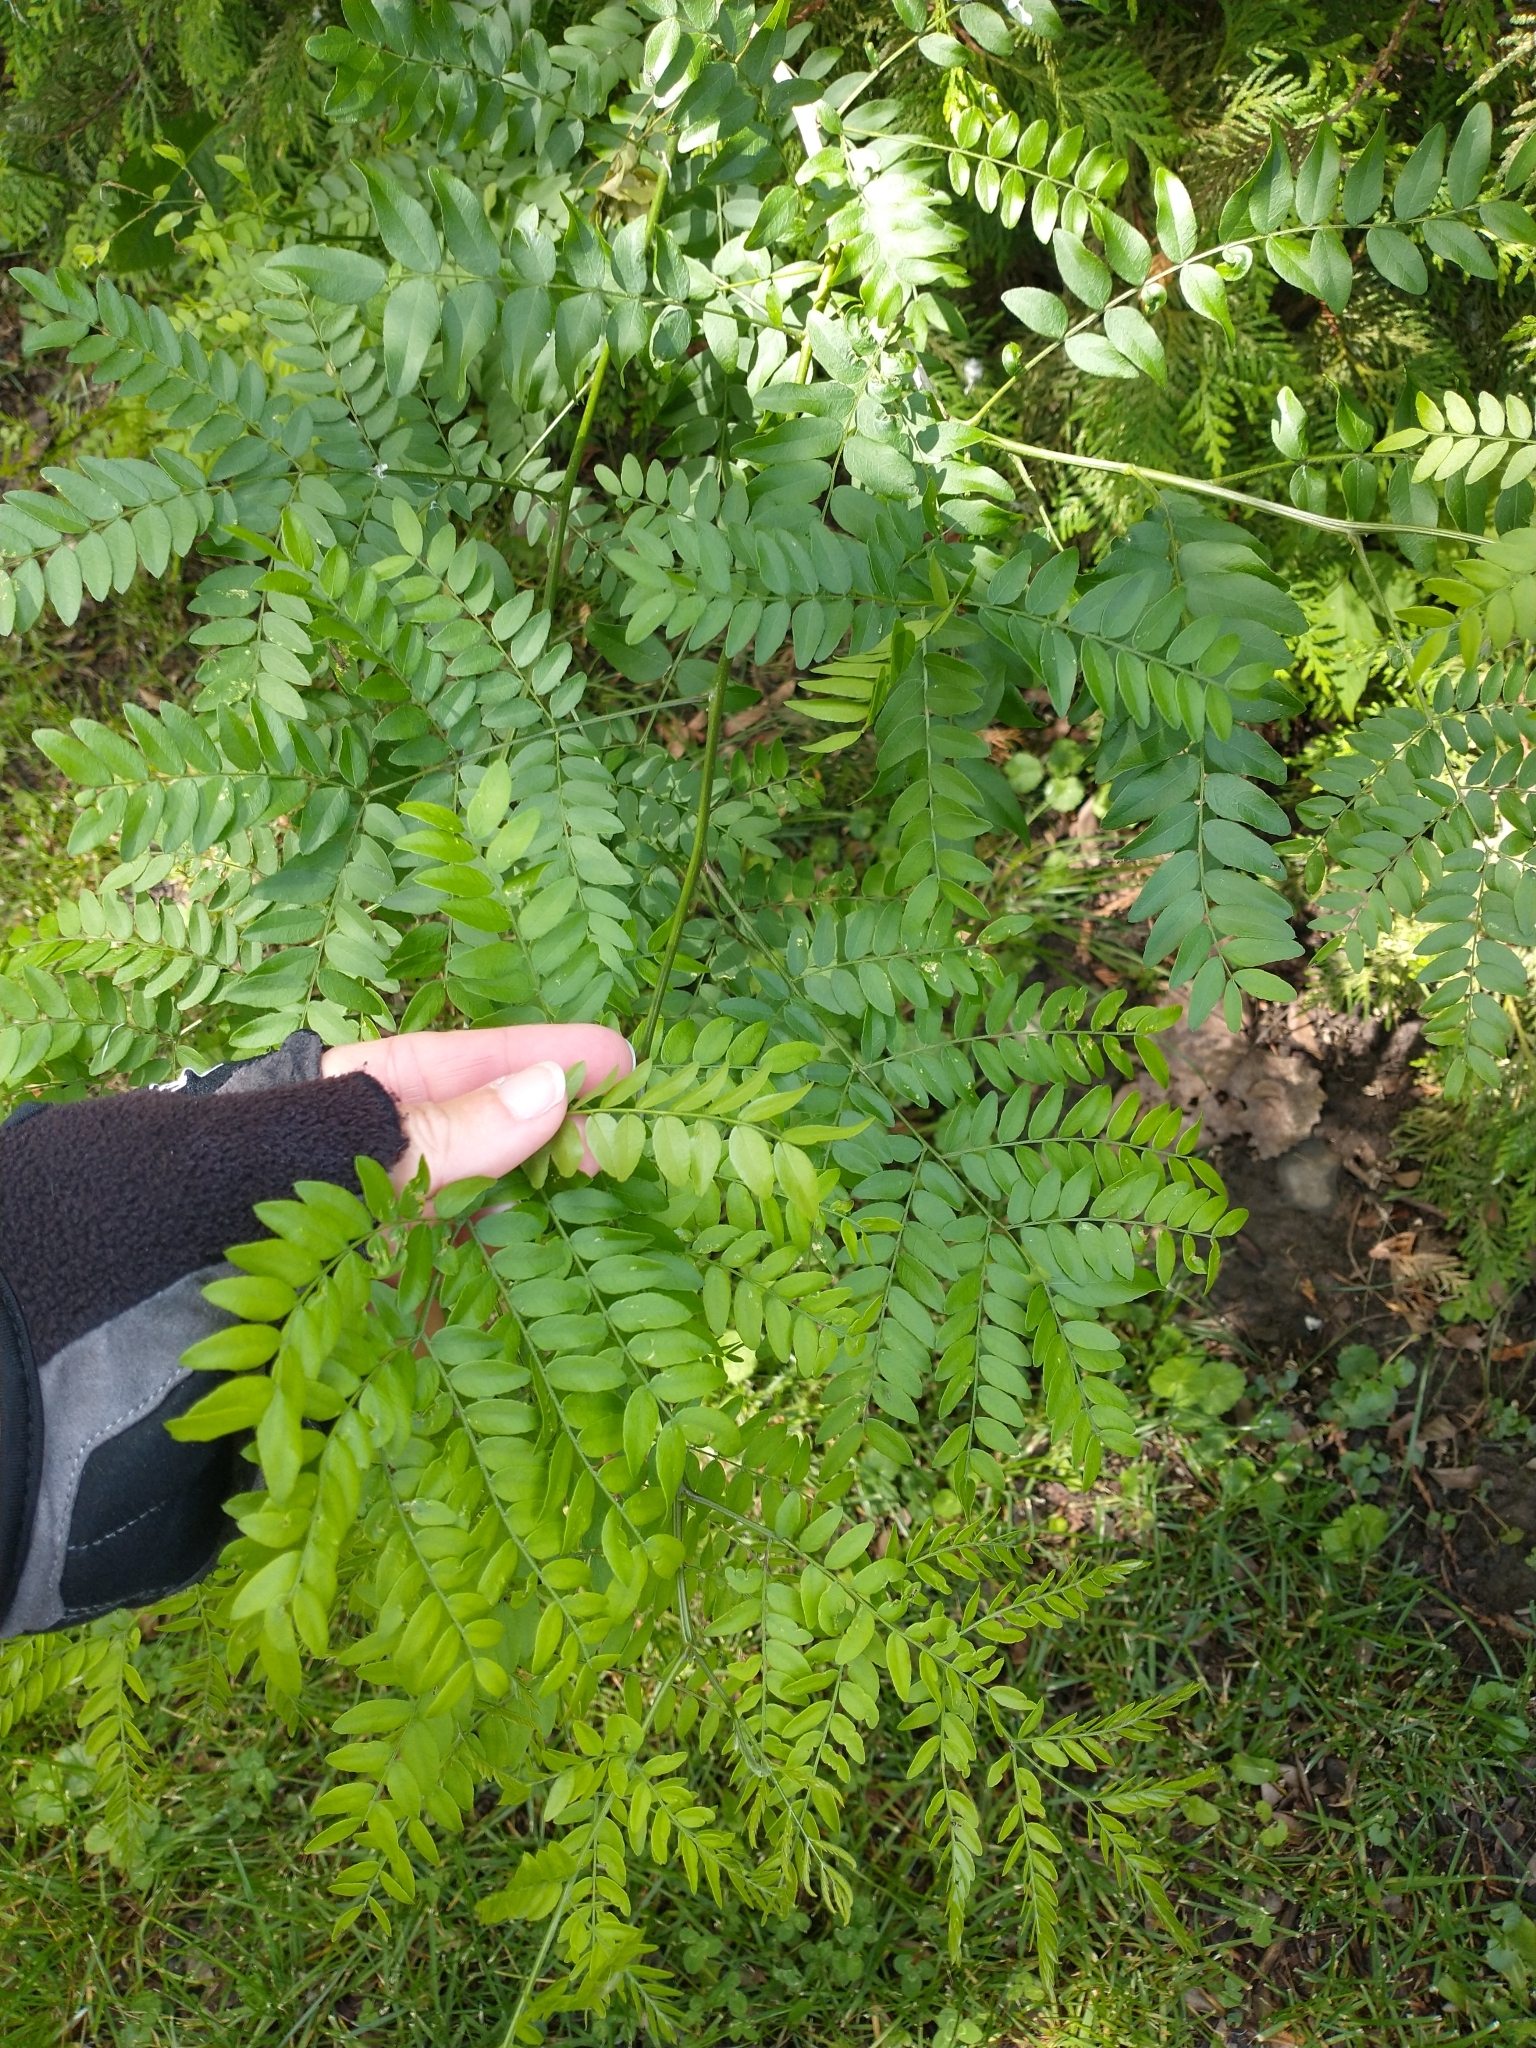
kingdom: Plantae
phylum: Tracheophyta
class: Magnoliopsida
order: Fabales
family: Fabaceae
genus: Gleditsia
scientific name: Gleditsia triacanthos
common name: Common honeylocust
